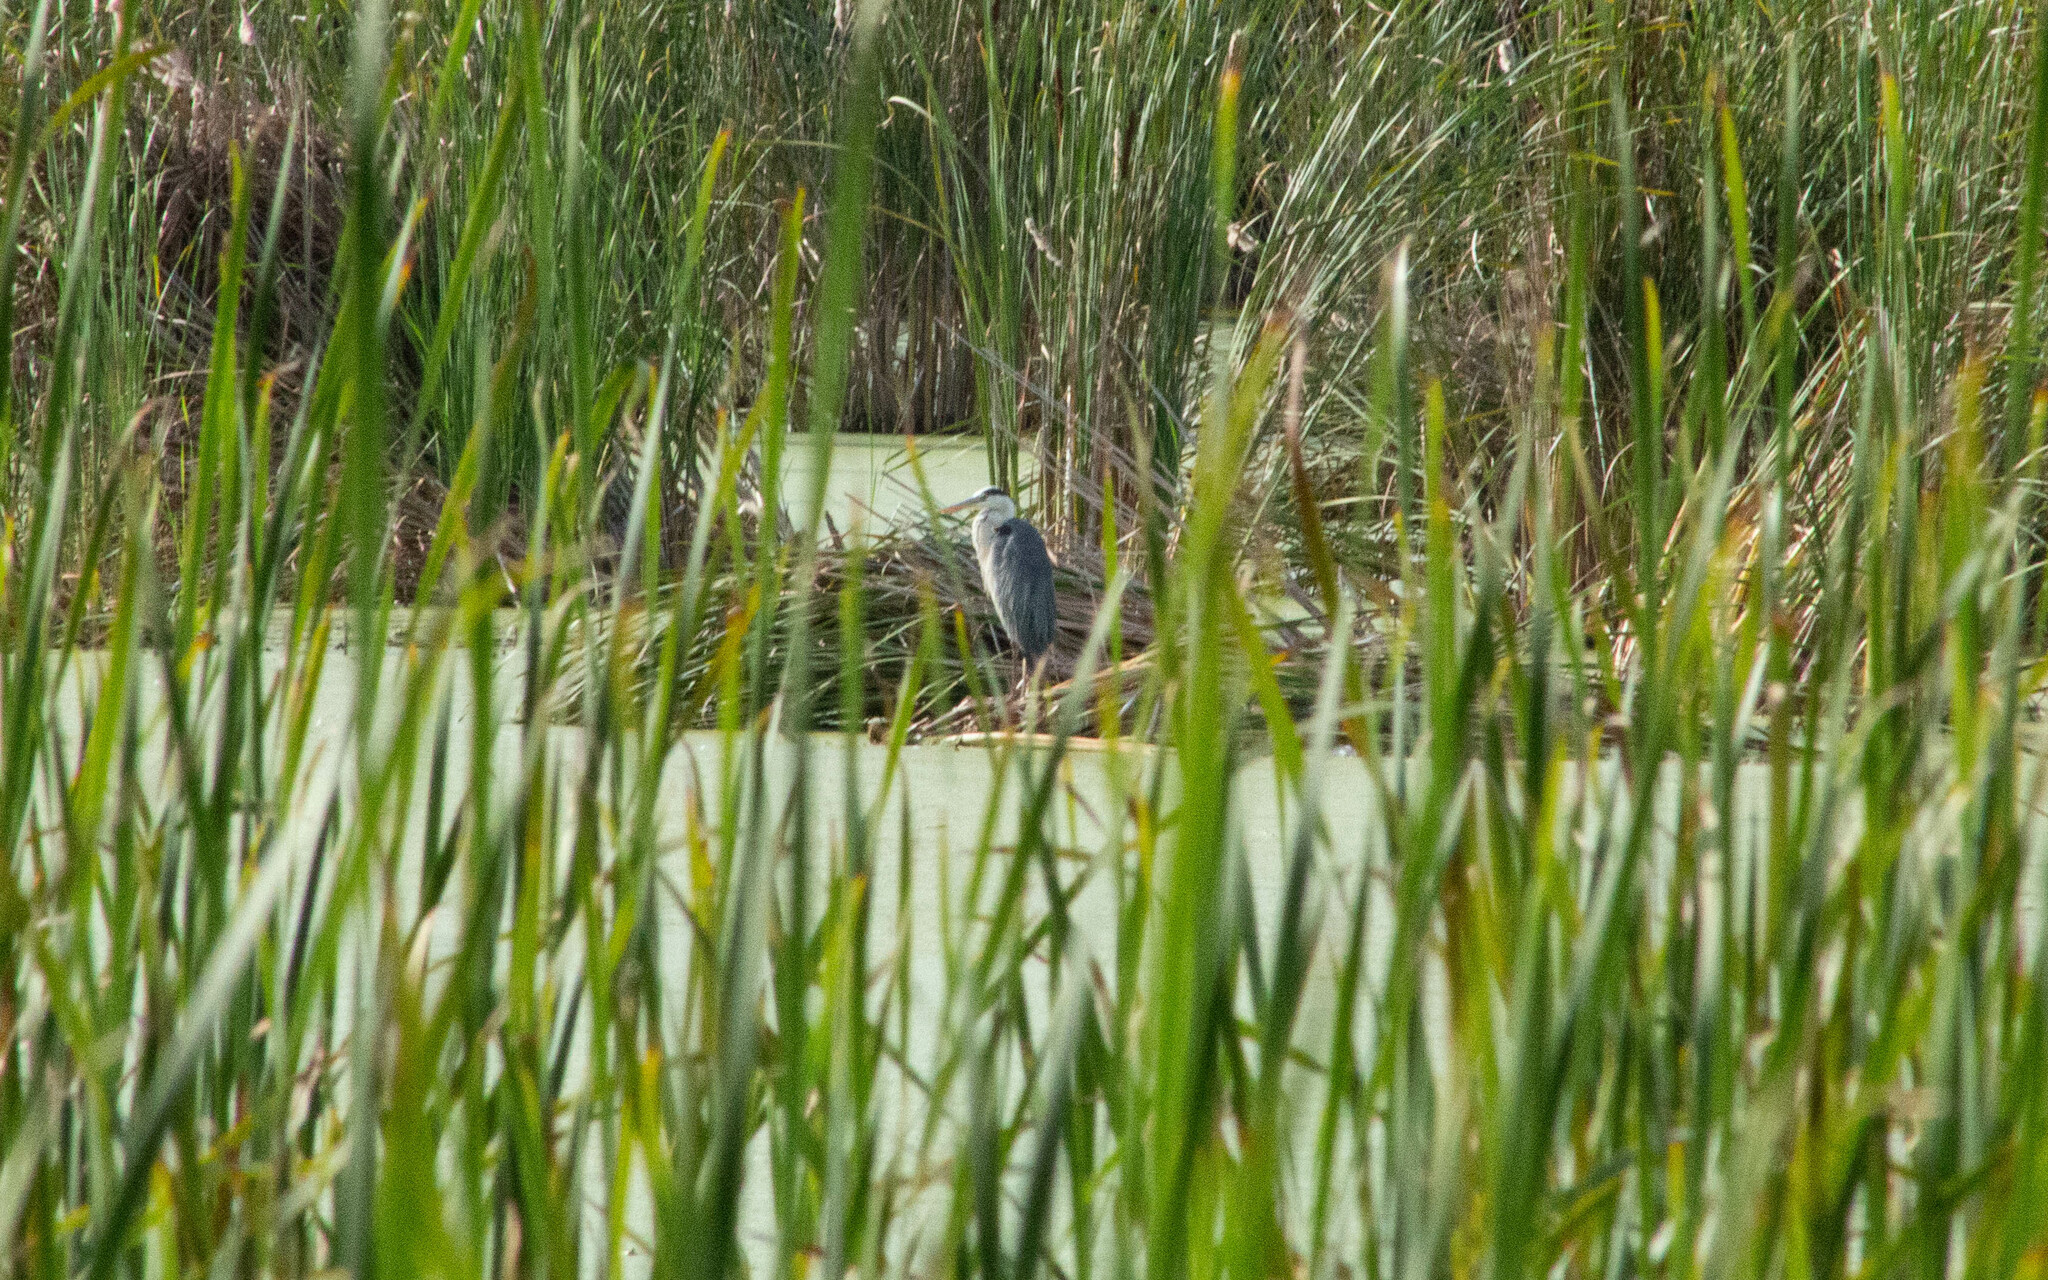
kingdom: Animalia
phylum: Chordata
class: Aves
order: Pelecaniformes
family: Ardeidae
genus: Ardea
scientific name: Ardea cinerea
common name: Grey heron
